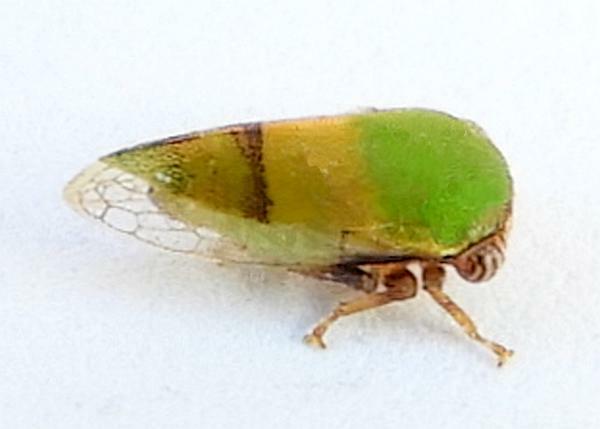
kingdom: Animalia
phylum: Arthropoda
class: Insecta
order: Hemiptera
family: Membracidae
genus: Idioderma
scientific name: Idioderma virescens
